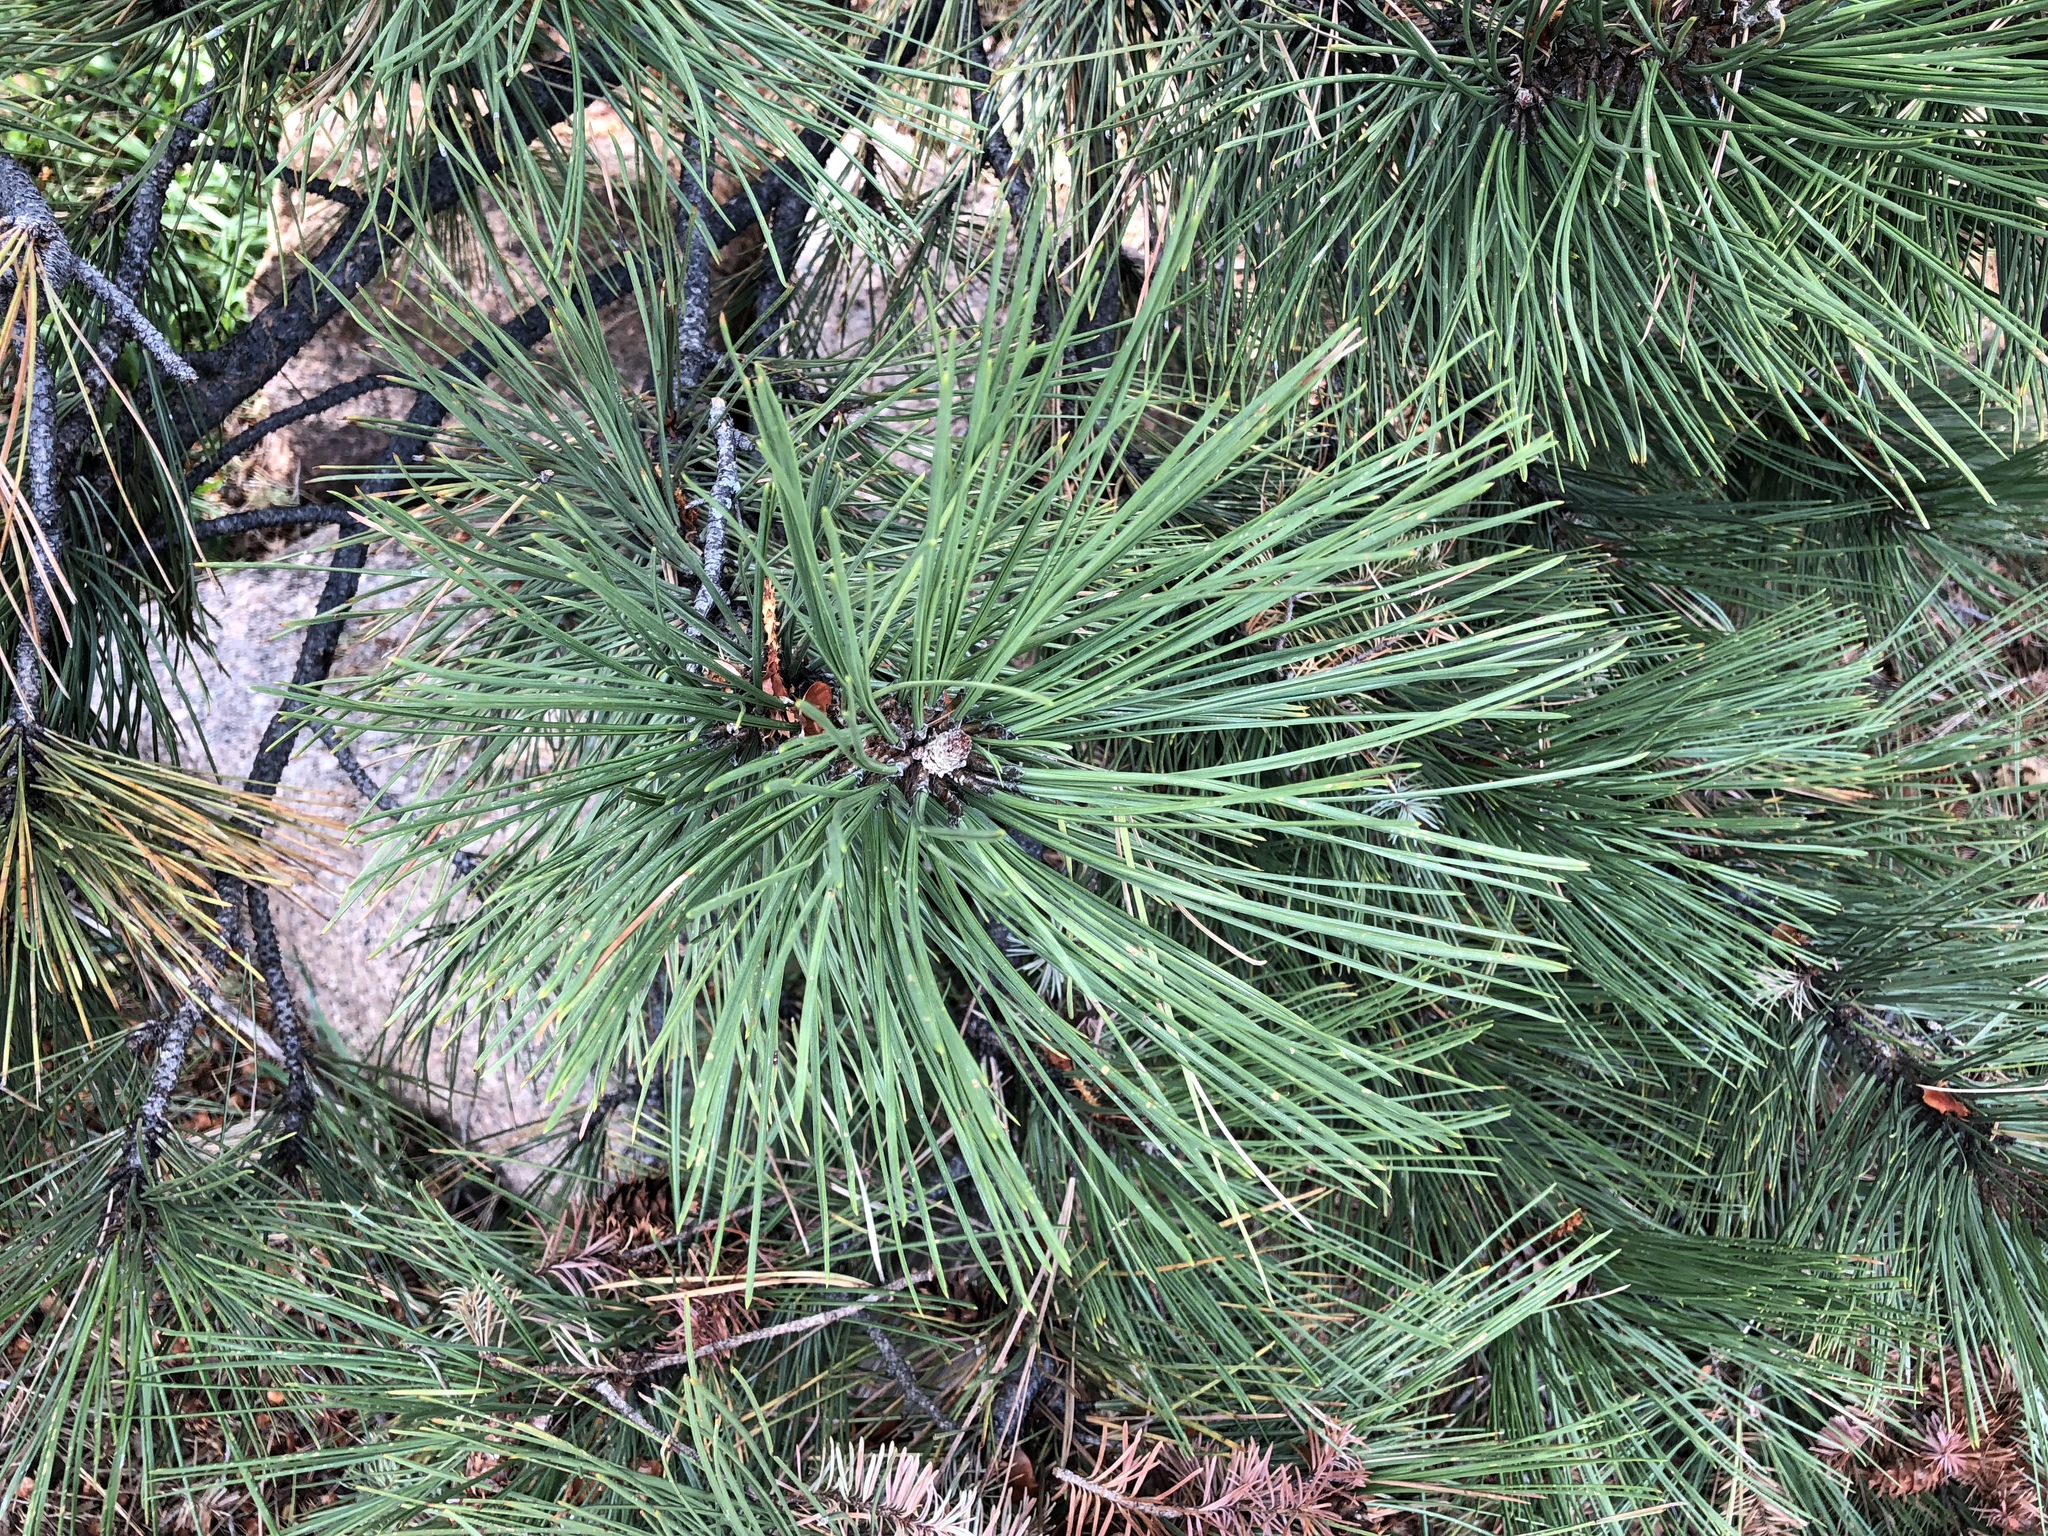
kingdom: Plantae
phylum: Tracheophyta
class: Pinopsida
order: Pinales
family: Pinaceae
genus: Pinus
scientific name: Pinus ponderosa
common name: Western yellow-pine
